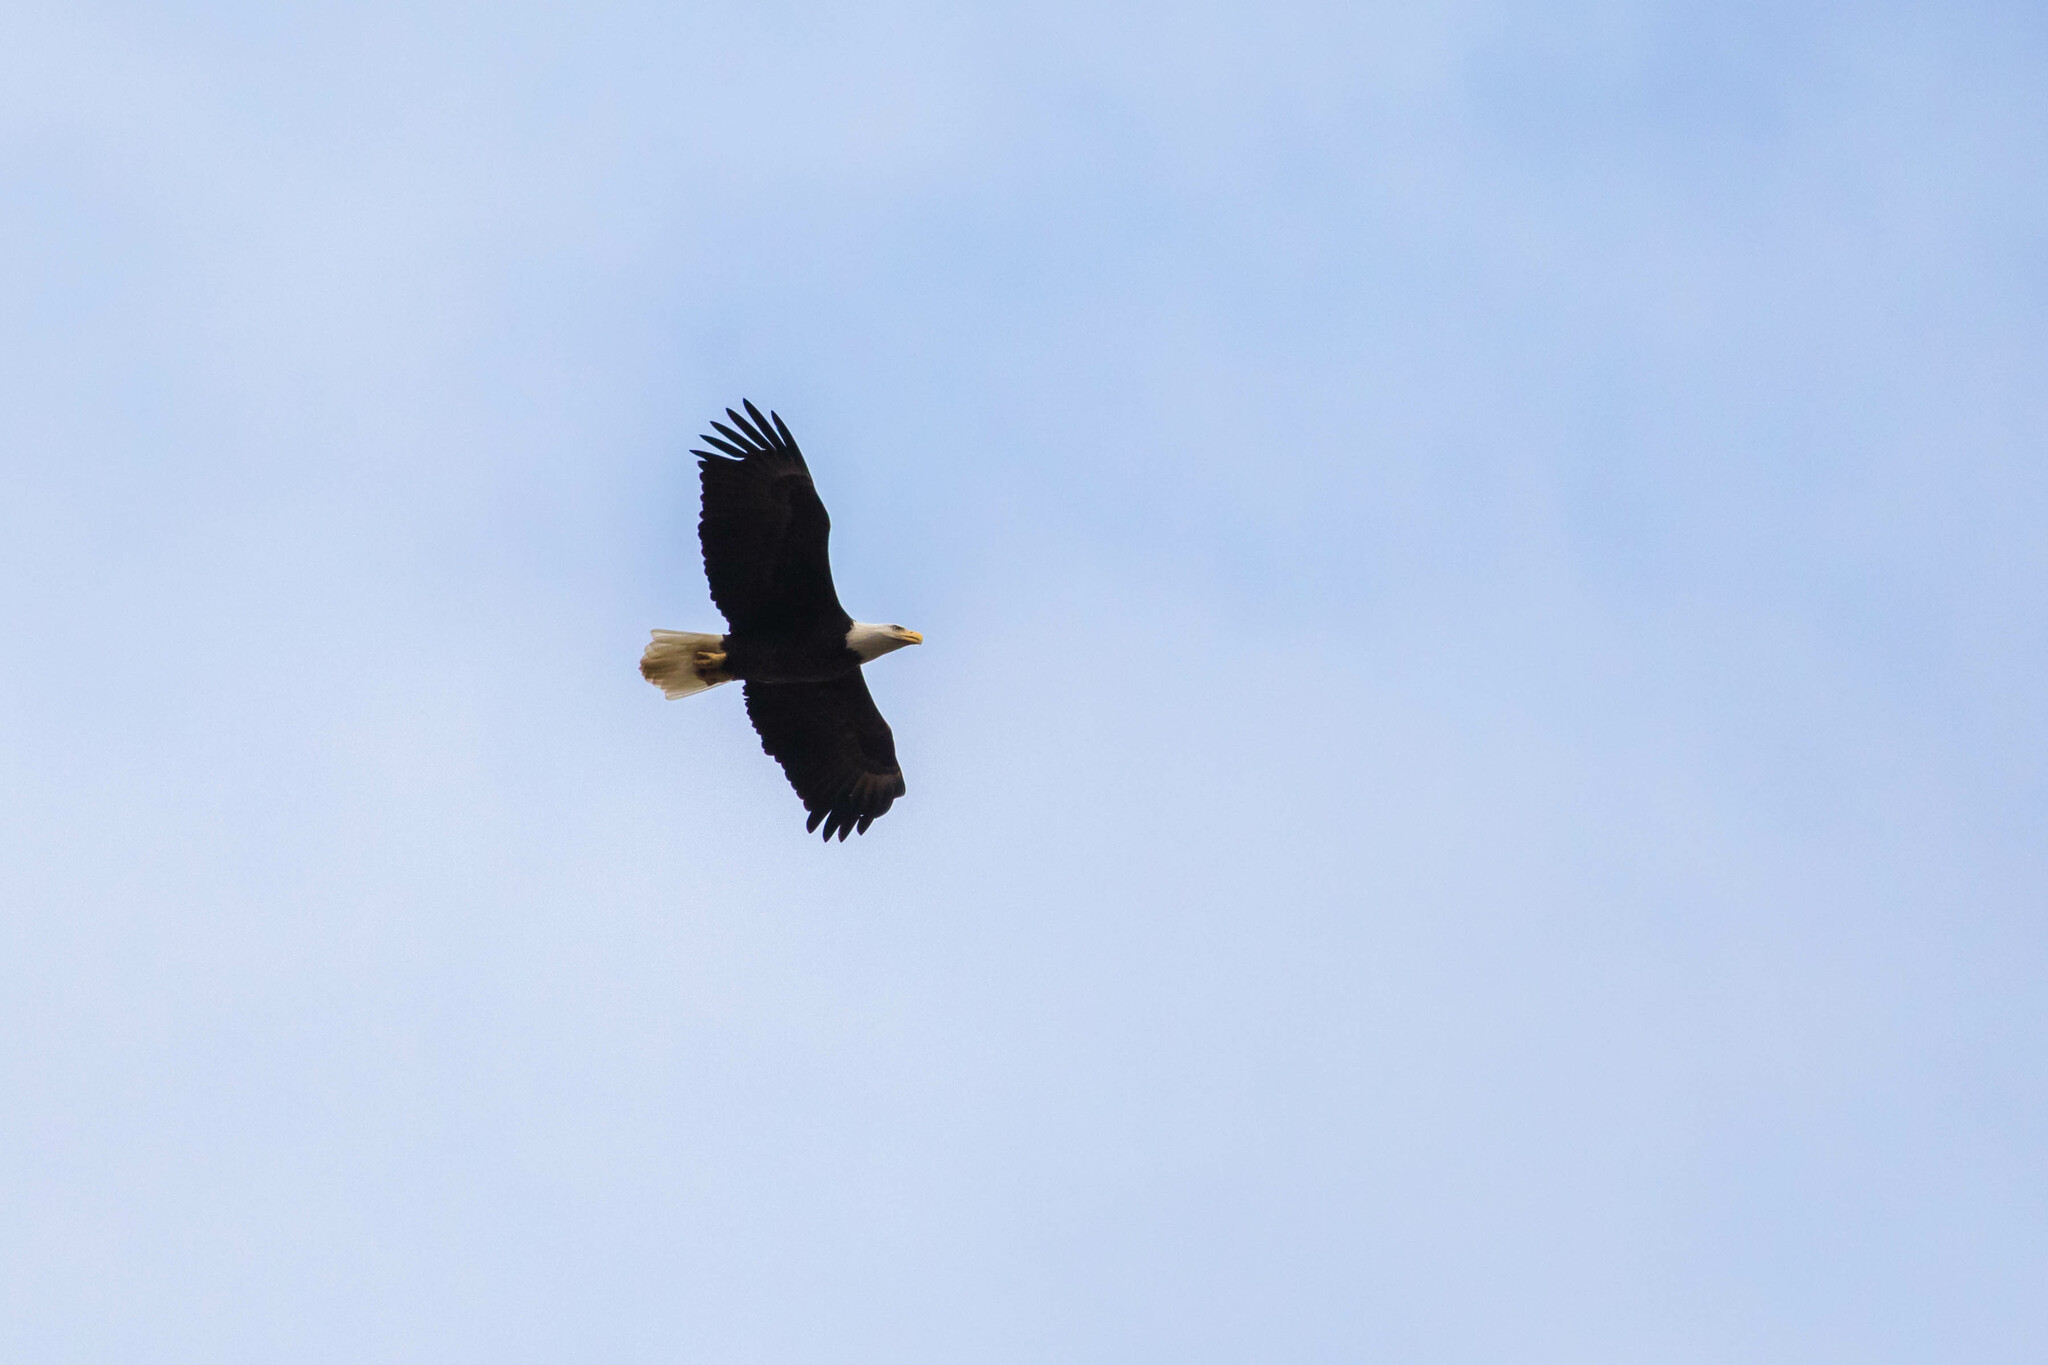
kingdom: Animalia
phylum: Chordata
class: Aves
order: Accipitriformes
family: Accipitridae
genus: Haliaeetus
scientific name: Haliaeetus leucocephalus
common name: Bald eagle
